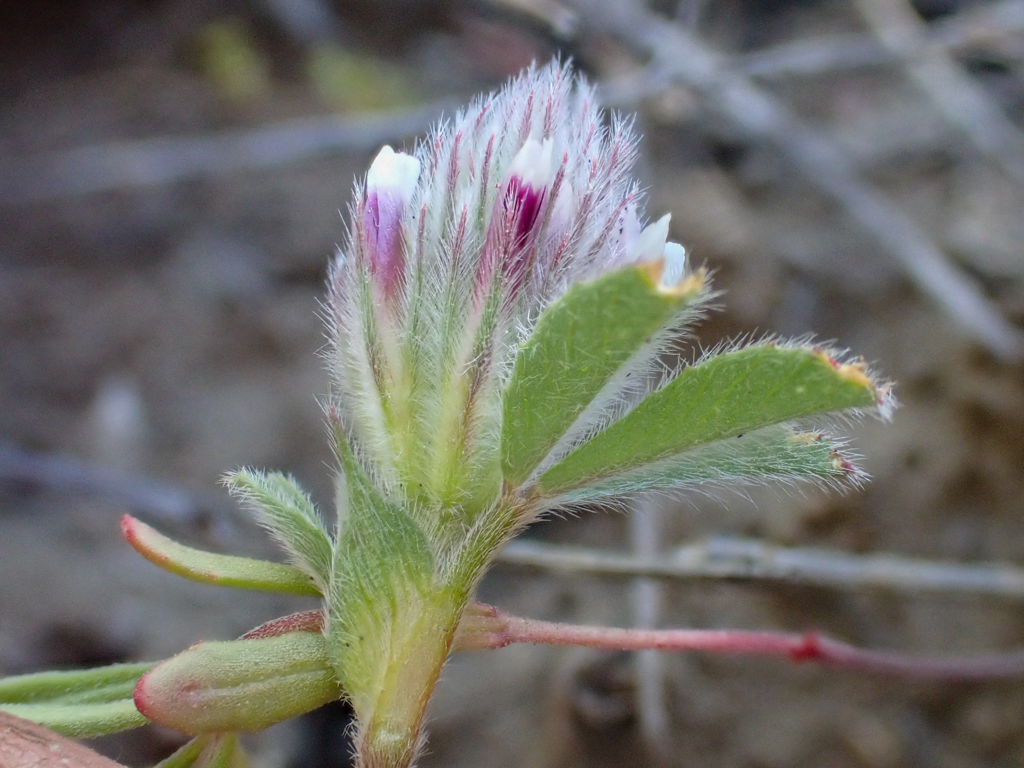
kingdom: Plantae
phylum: Tracheophyta
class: Magnoliopsida
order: Fabales
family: Fabaceae
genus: Trifolium
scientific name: Trifolium dichotomum
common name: Branched indian clover
